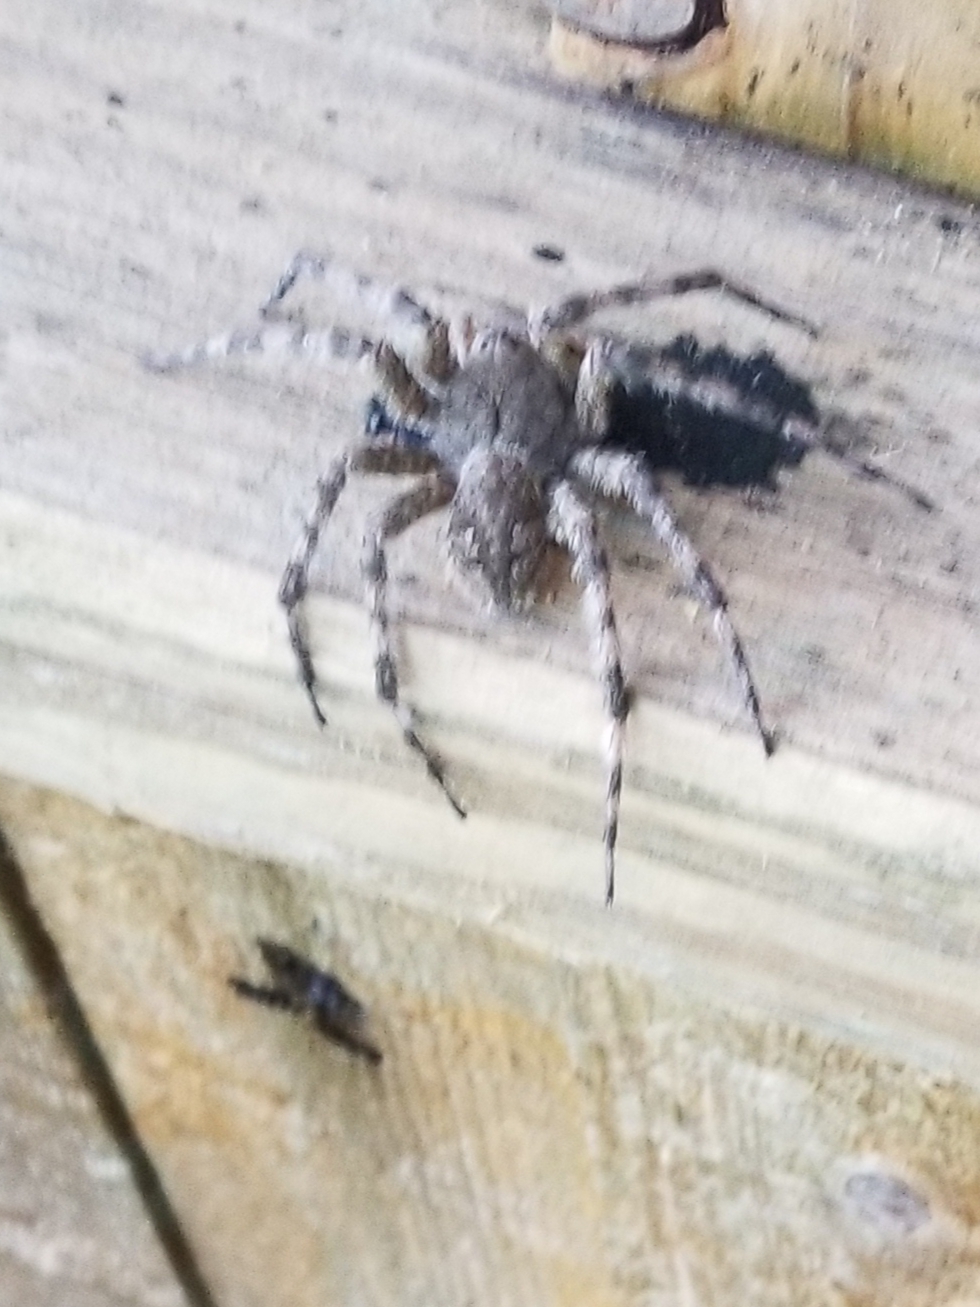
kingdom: Animalia
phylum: Arthropoda
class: Arachnida
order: Araneae
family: Pisauridae
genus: Dolomedes
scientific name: Dolomedes albineus
